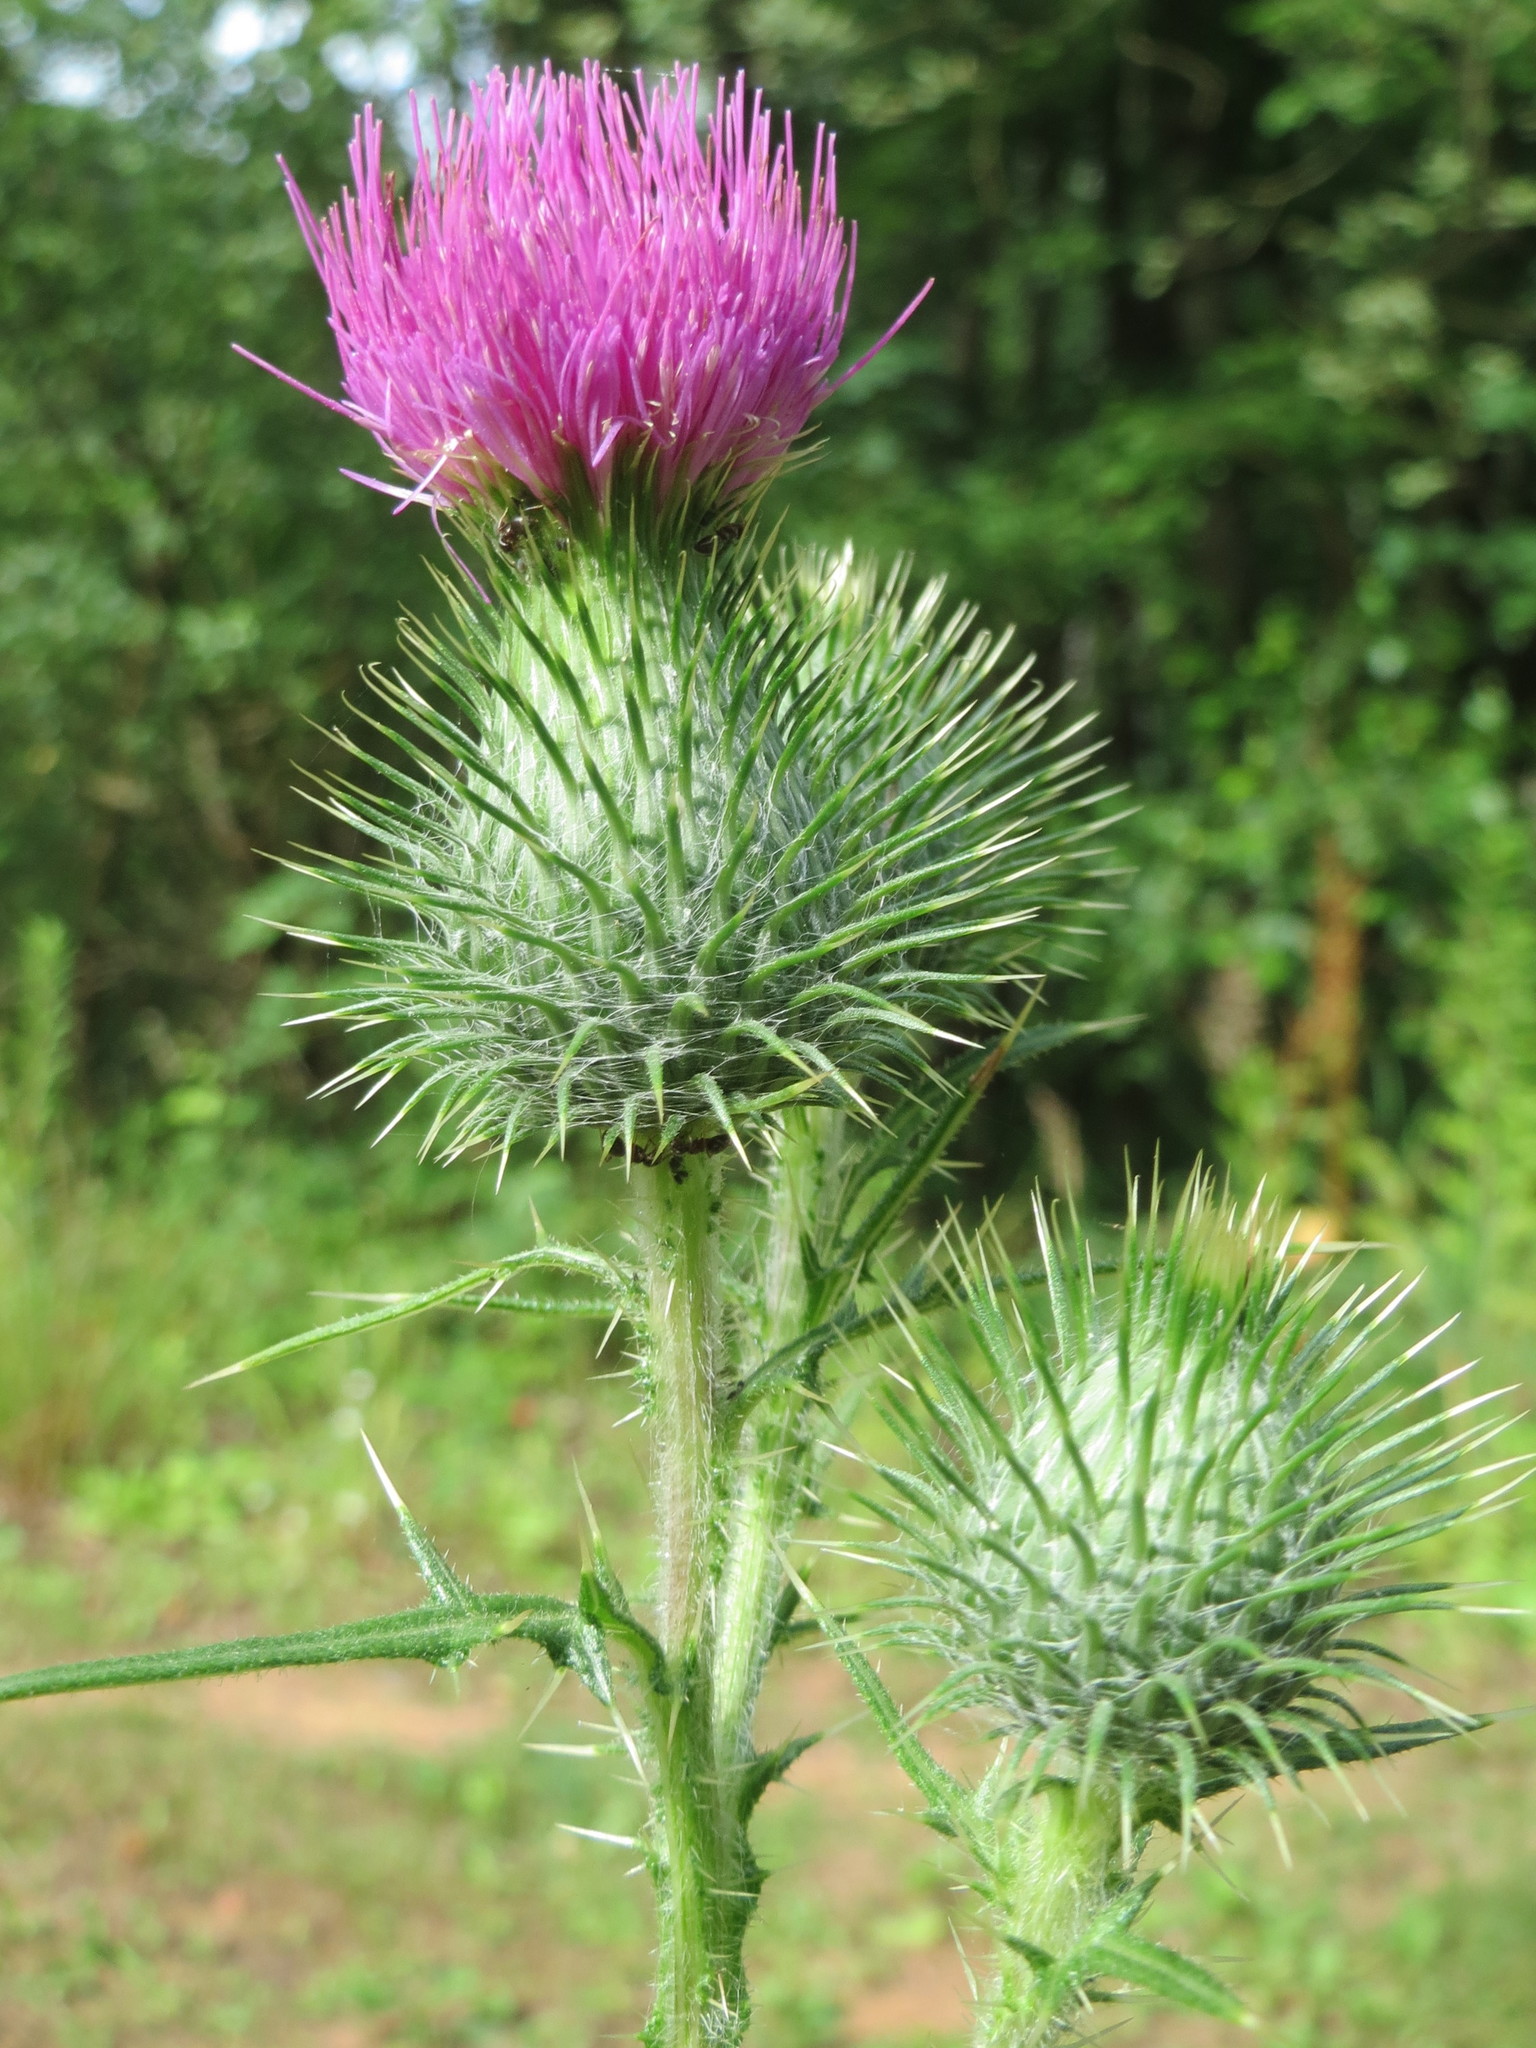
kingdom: Plantae
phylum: Tracheophyta
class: Magnoliopsida
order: Asterales
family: Asteraceae
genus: Cirsium
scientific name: Cirsium vulgare
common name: Bull thistle
